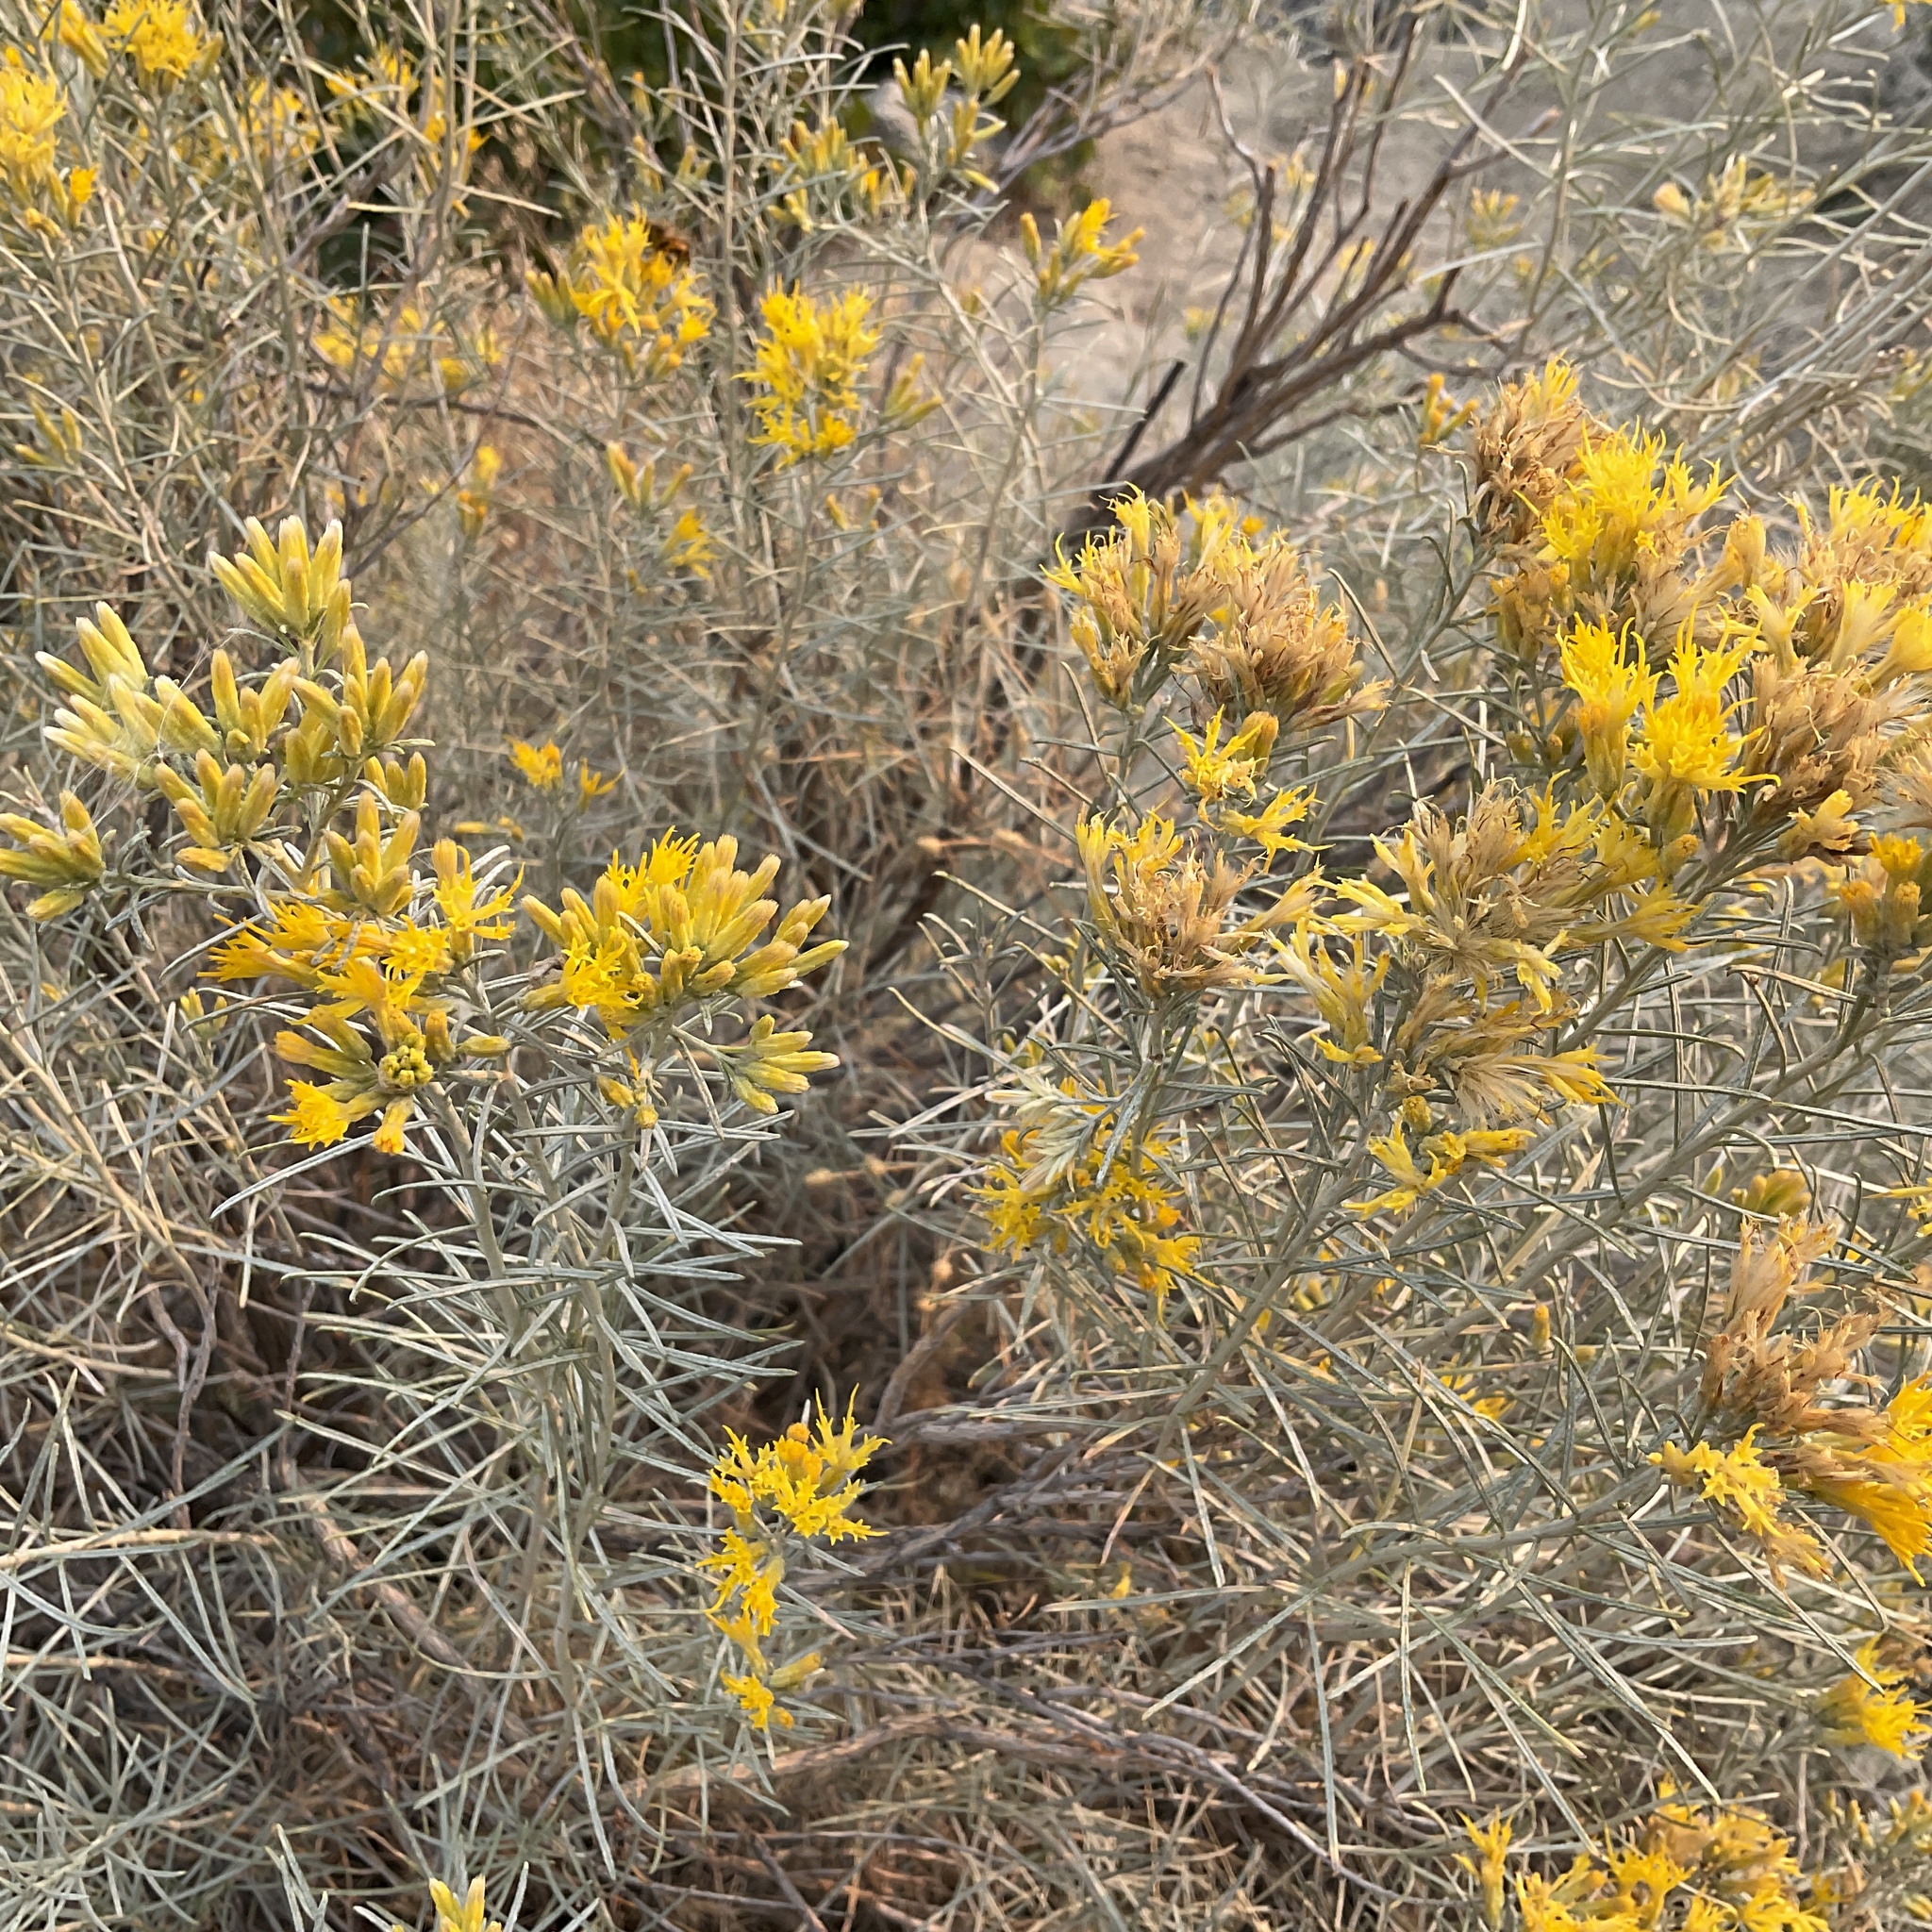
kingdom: Plantae
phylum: Tracheophyta
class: Magnoliopsida
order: Asterales
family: Asteraceae
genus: Ericameria
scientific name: Ericameria nauseosa
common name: Rubber rabbitbrush
